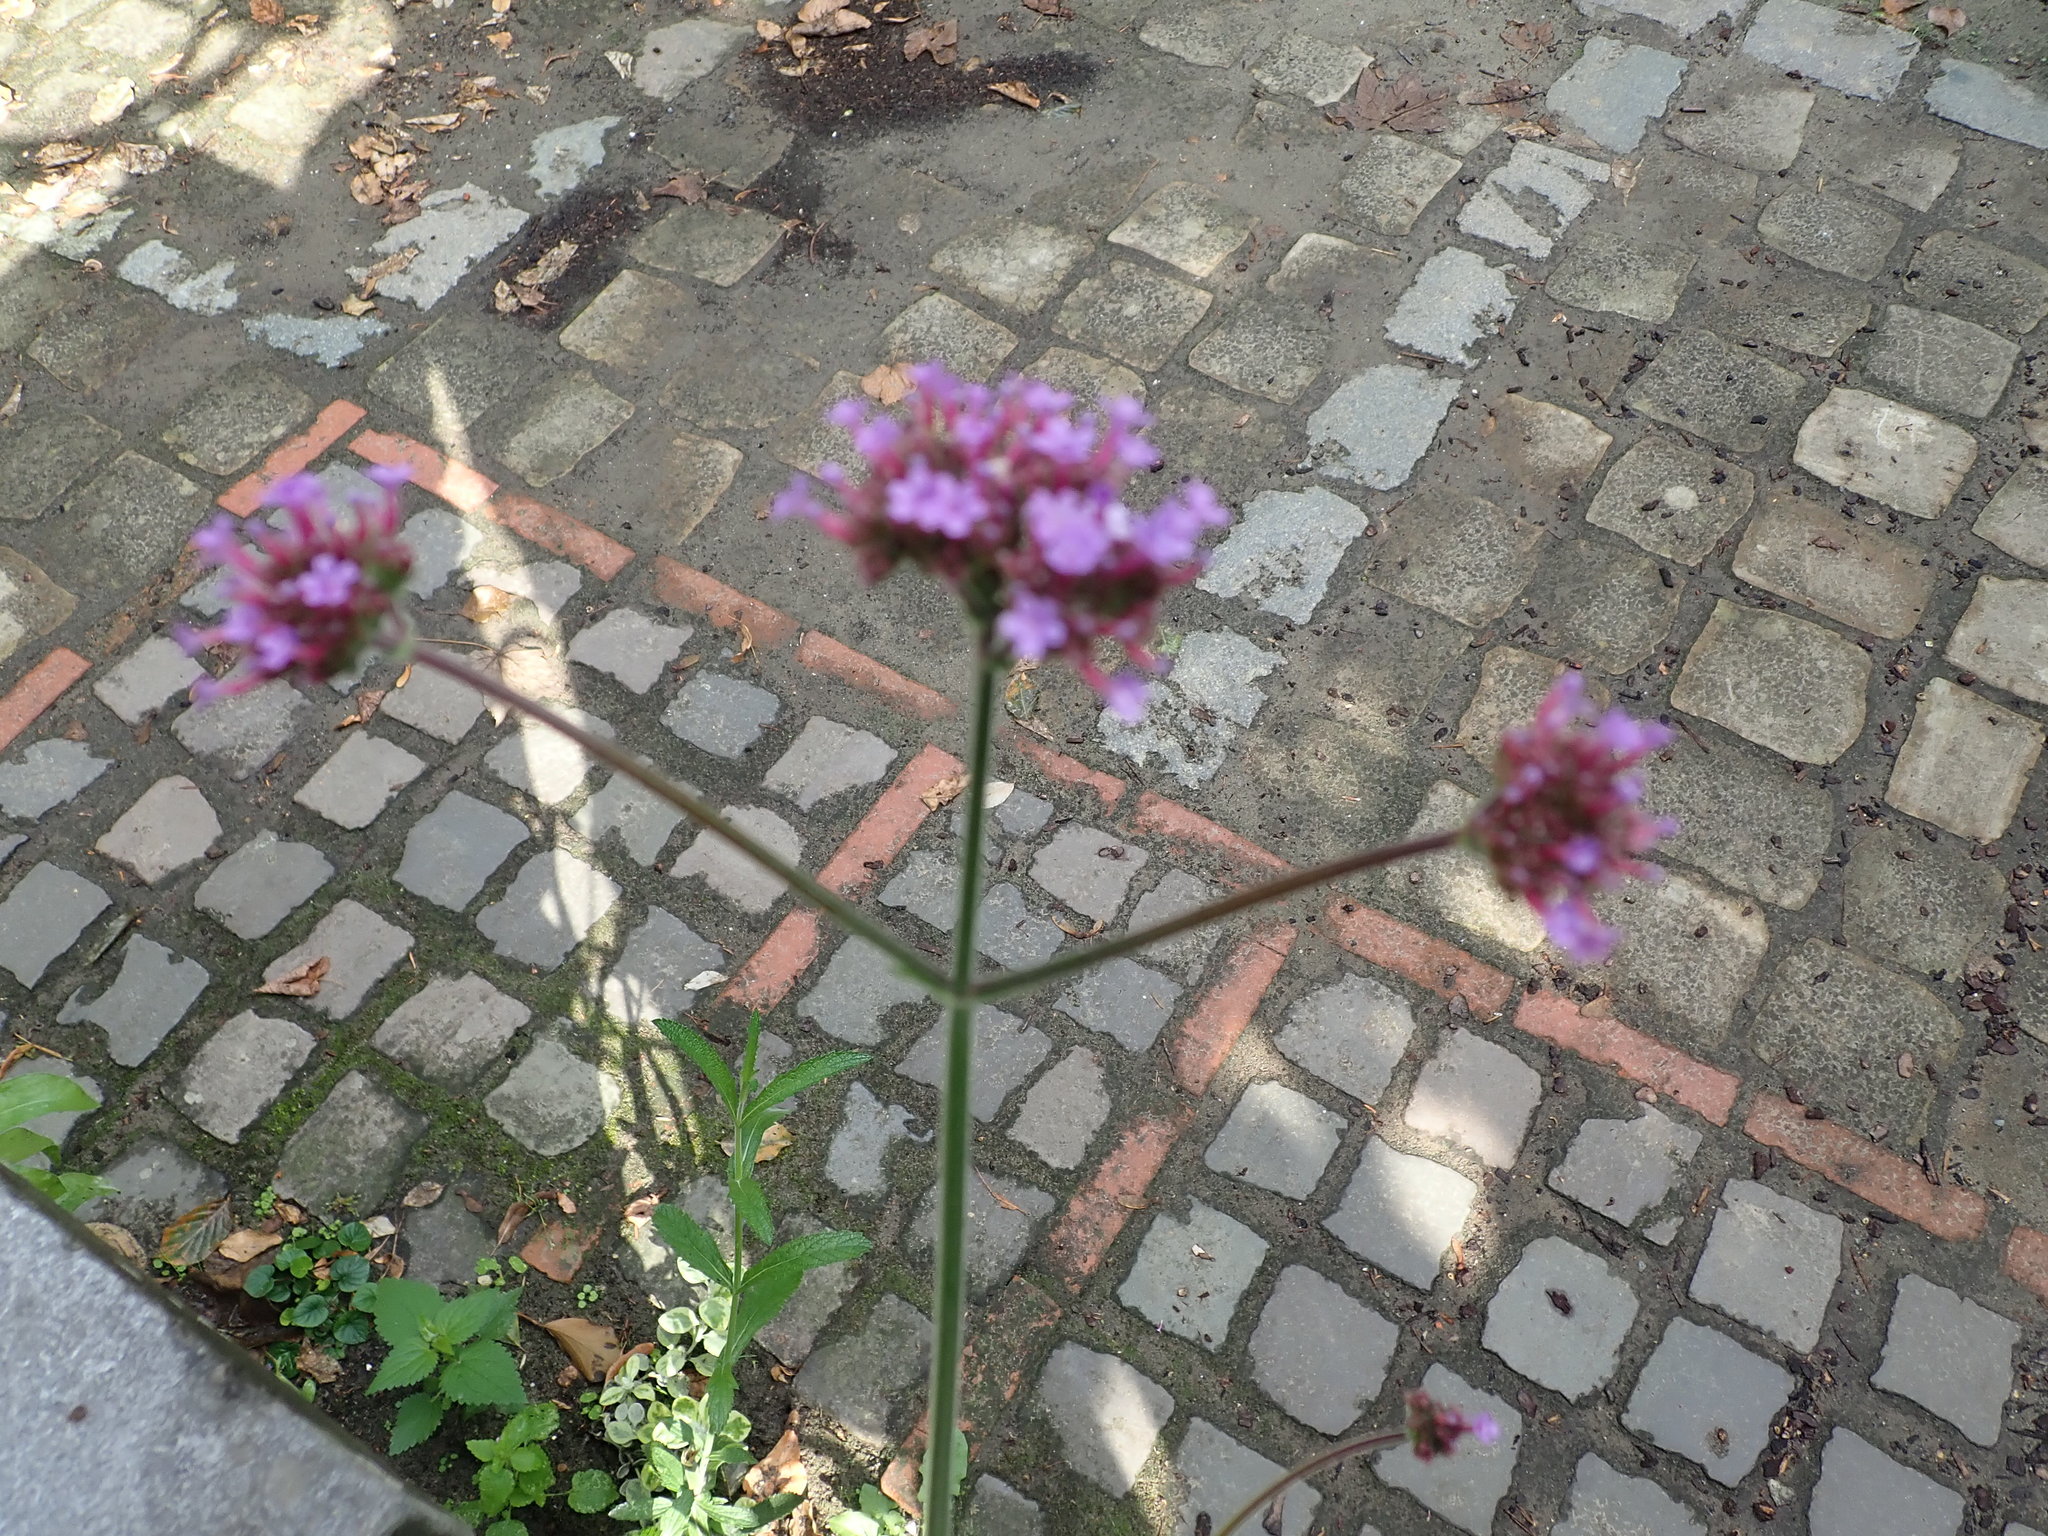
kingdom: Plantae
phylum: Tracheophyta
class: Magnoliopsida
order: Lamiales
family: Verbenaceae
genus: Verbena
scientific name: Verbena bonariensis
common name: Purpletop vervain
